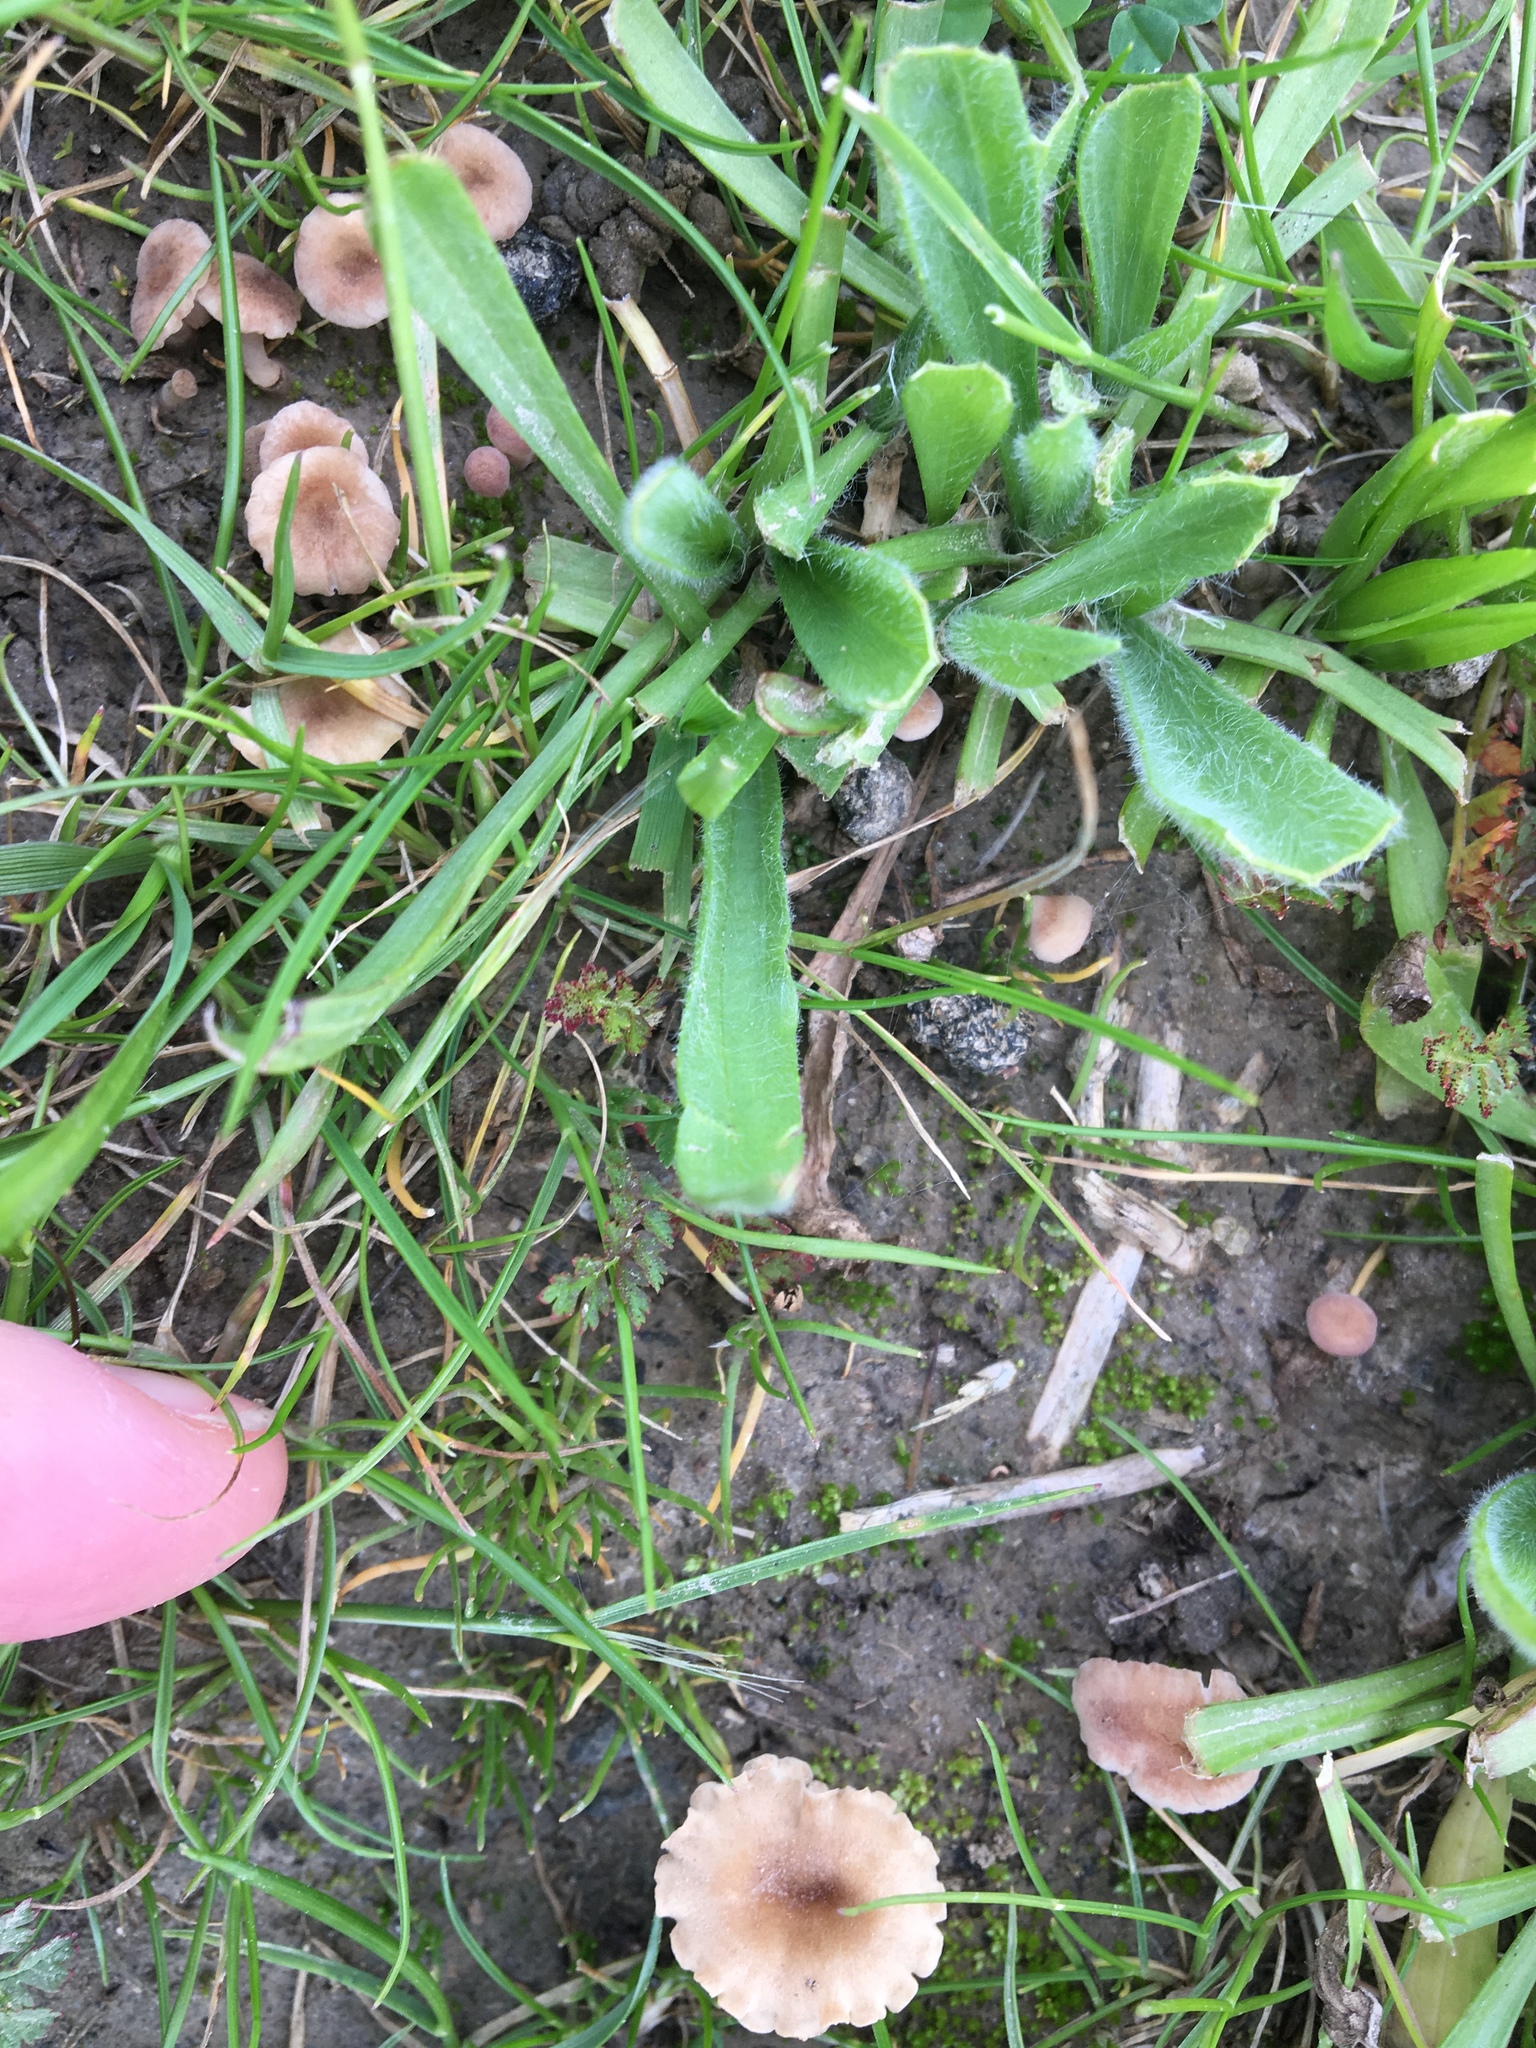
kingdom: Fungi
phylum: Basidiomycota
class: Agaricomycetes
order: Hymenochaetales
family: Rickenellaceae
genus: Contumyces
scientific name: Contumyces rosellus
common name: Rosy navel
